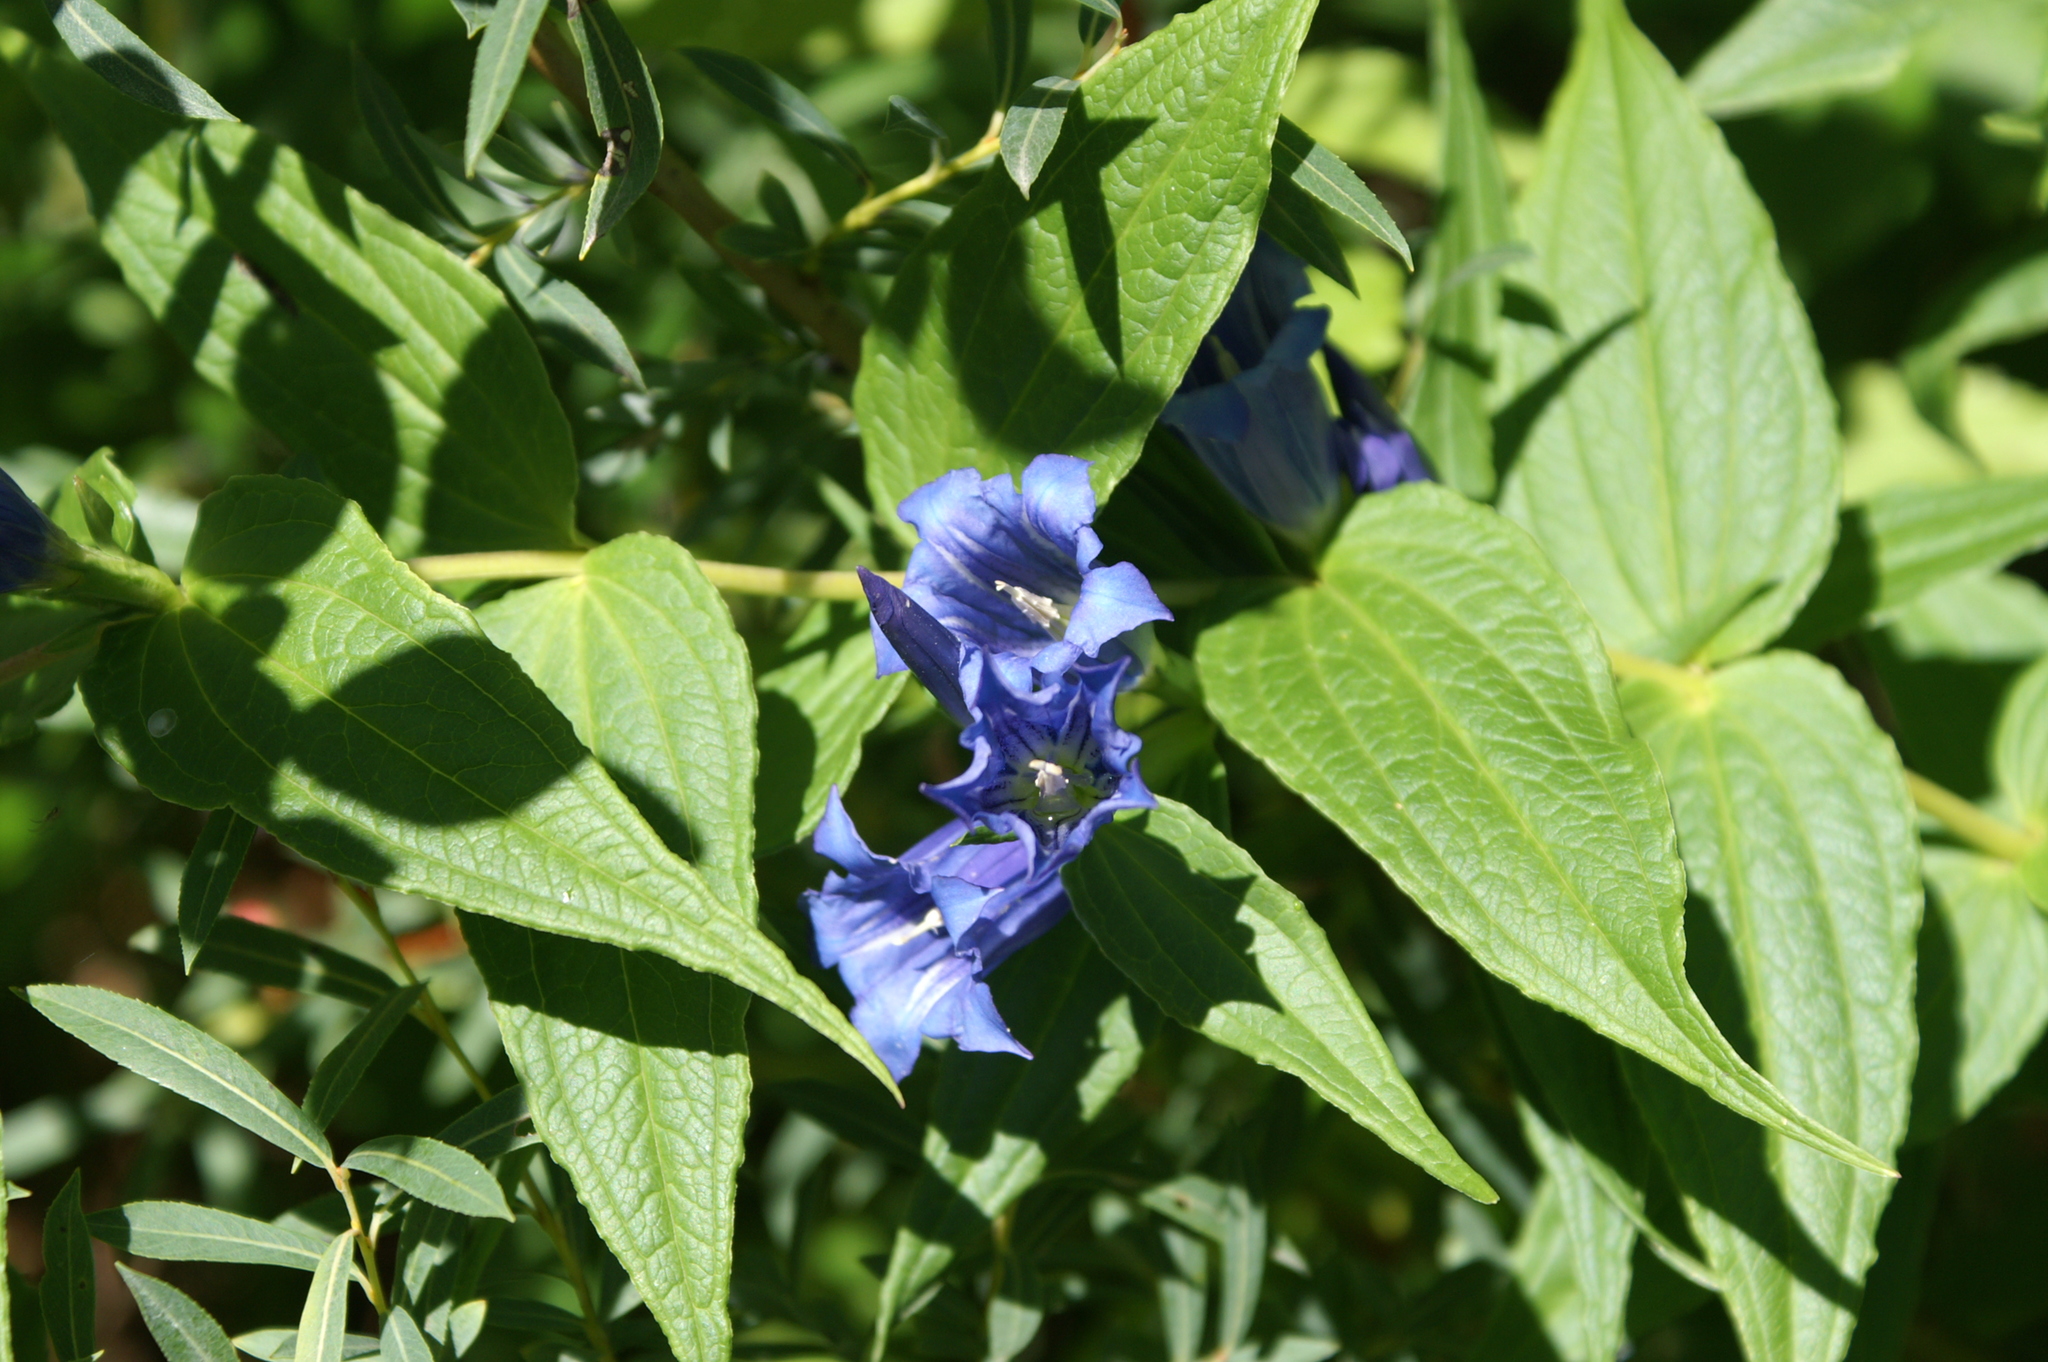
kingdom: Plantae
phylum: Tracheophyta
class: Magnoliopsida
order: Gentianales
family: Gentianaceae
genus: Gentiana
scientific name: Gentiana asclepiadea
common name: Willow gentian
